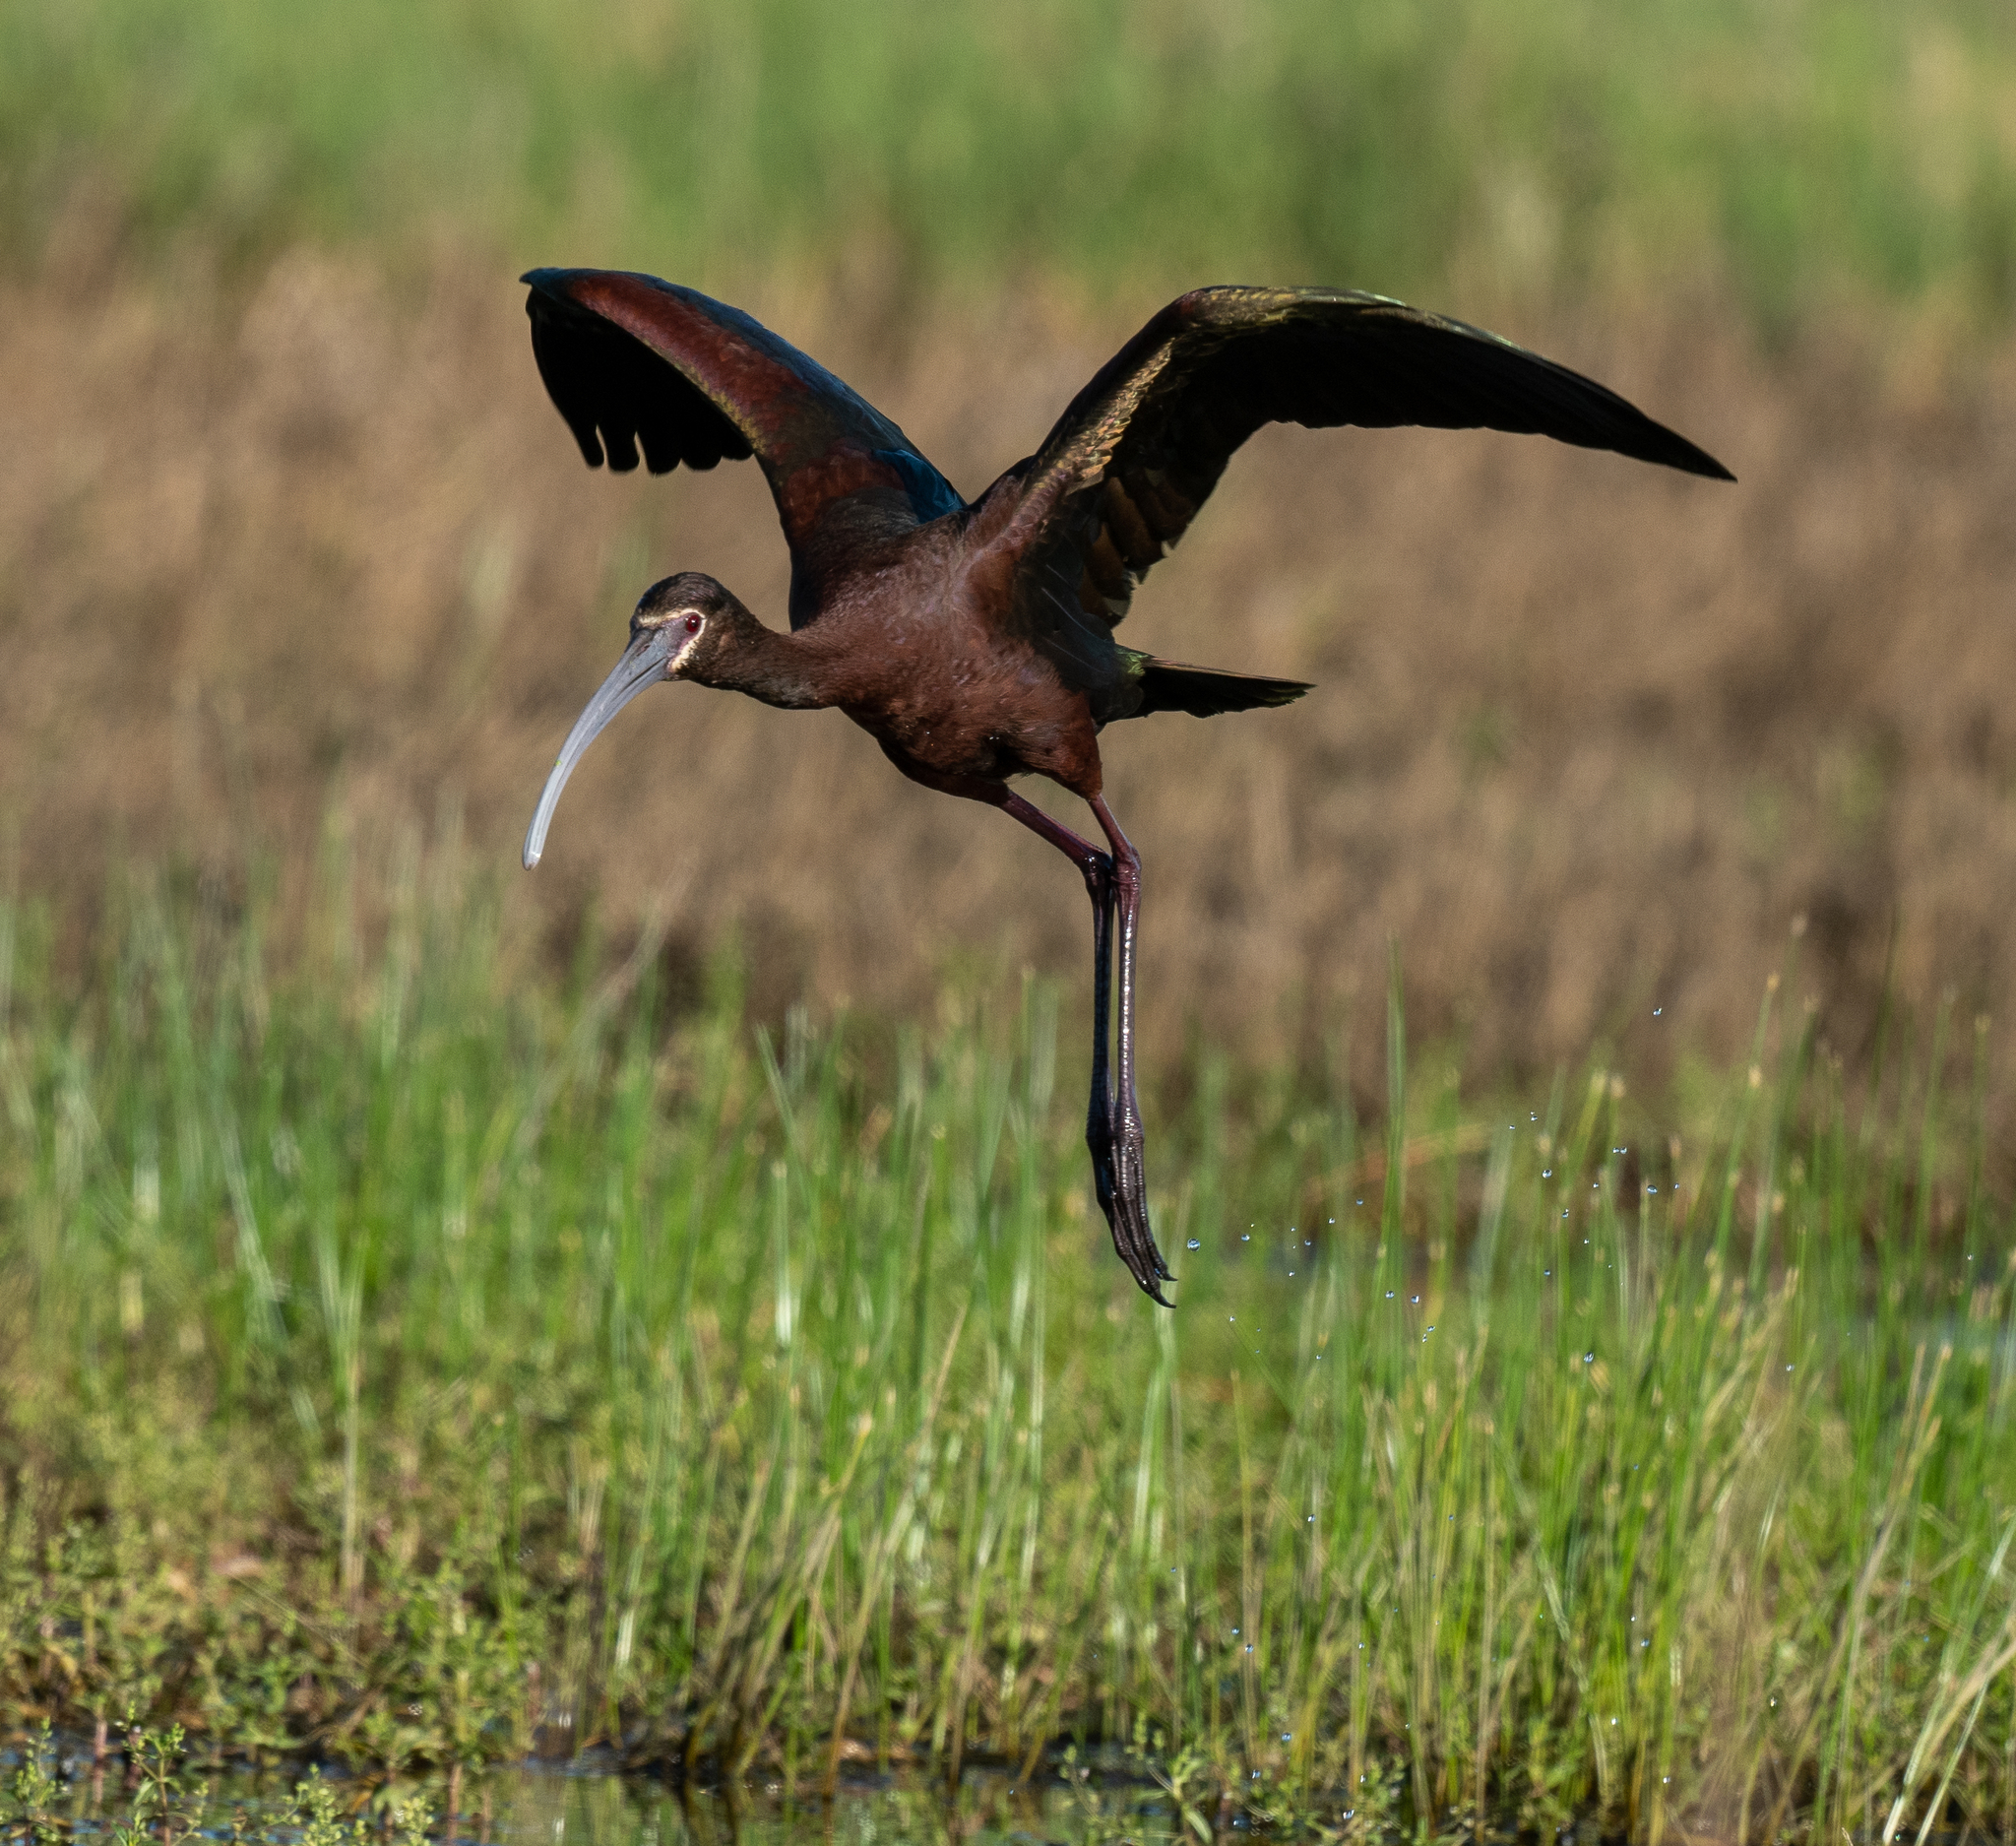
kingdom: Animalia
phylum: Chordata
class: Aves
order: Pelecaniformes
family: Threskiornithidae
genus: Plegadis
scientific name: Plegadis chihi
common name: White-faced ibis
